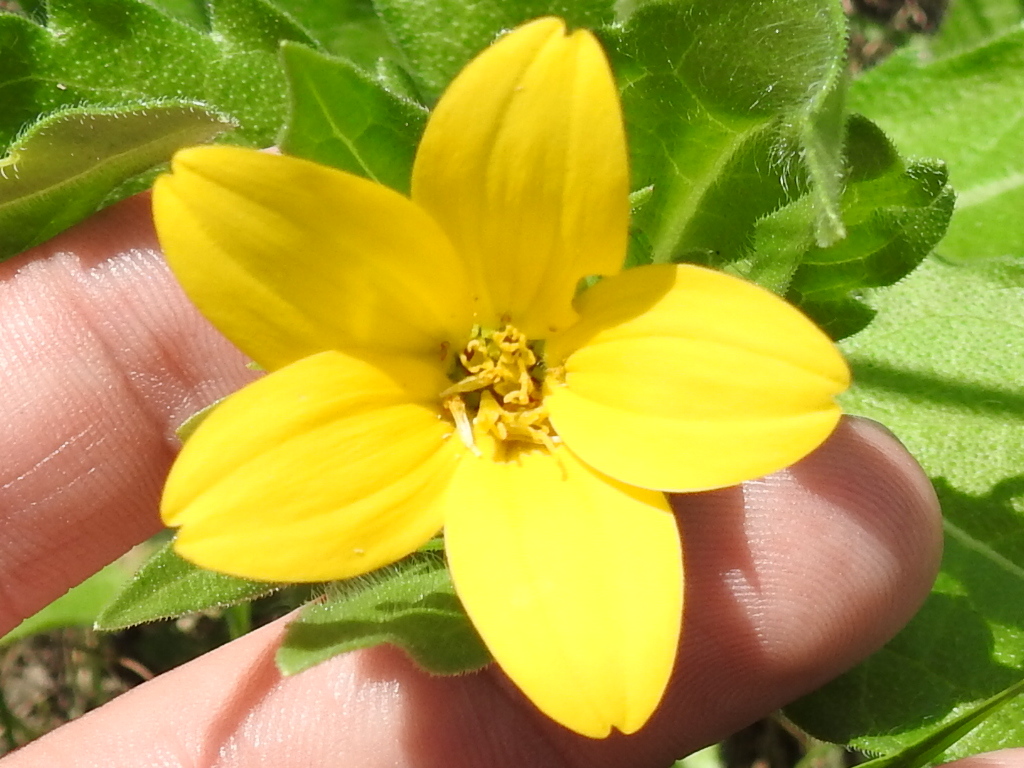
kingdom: Plantae
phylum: Tracheophyta
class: Magnoliopsida
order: Asterales
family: Asteraceae
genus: Lindheimera
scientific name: Lindheimera texana
